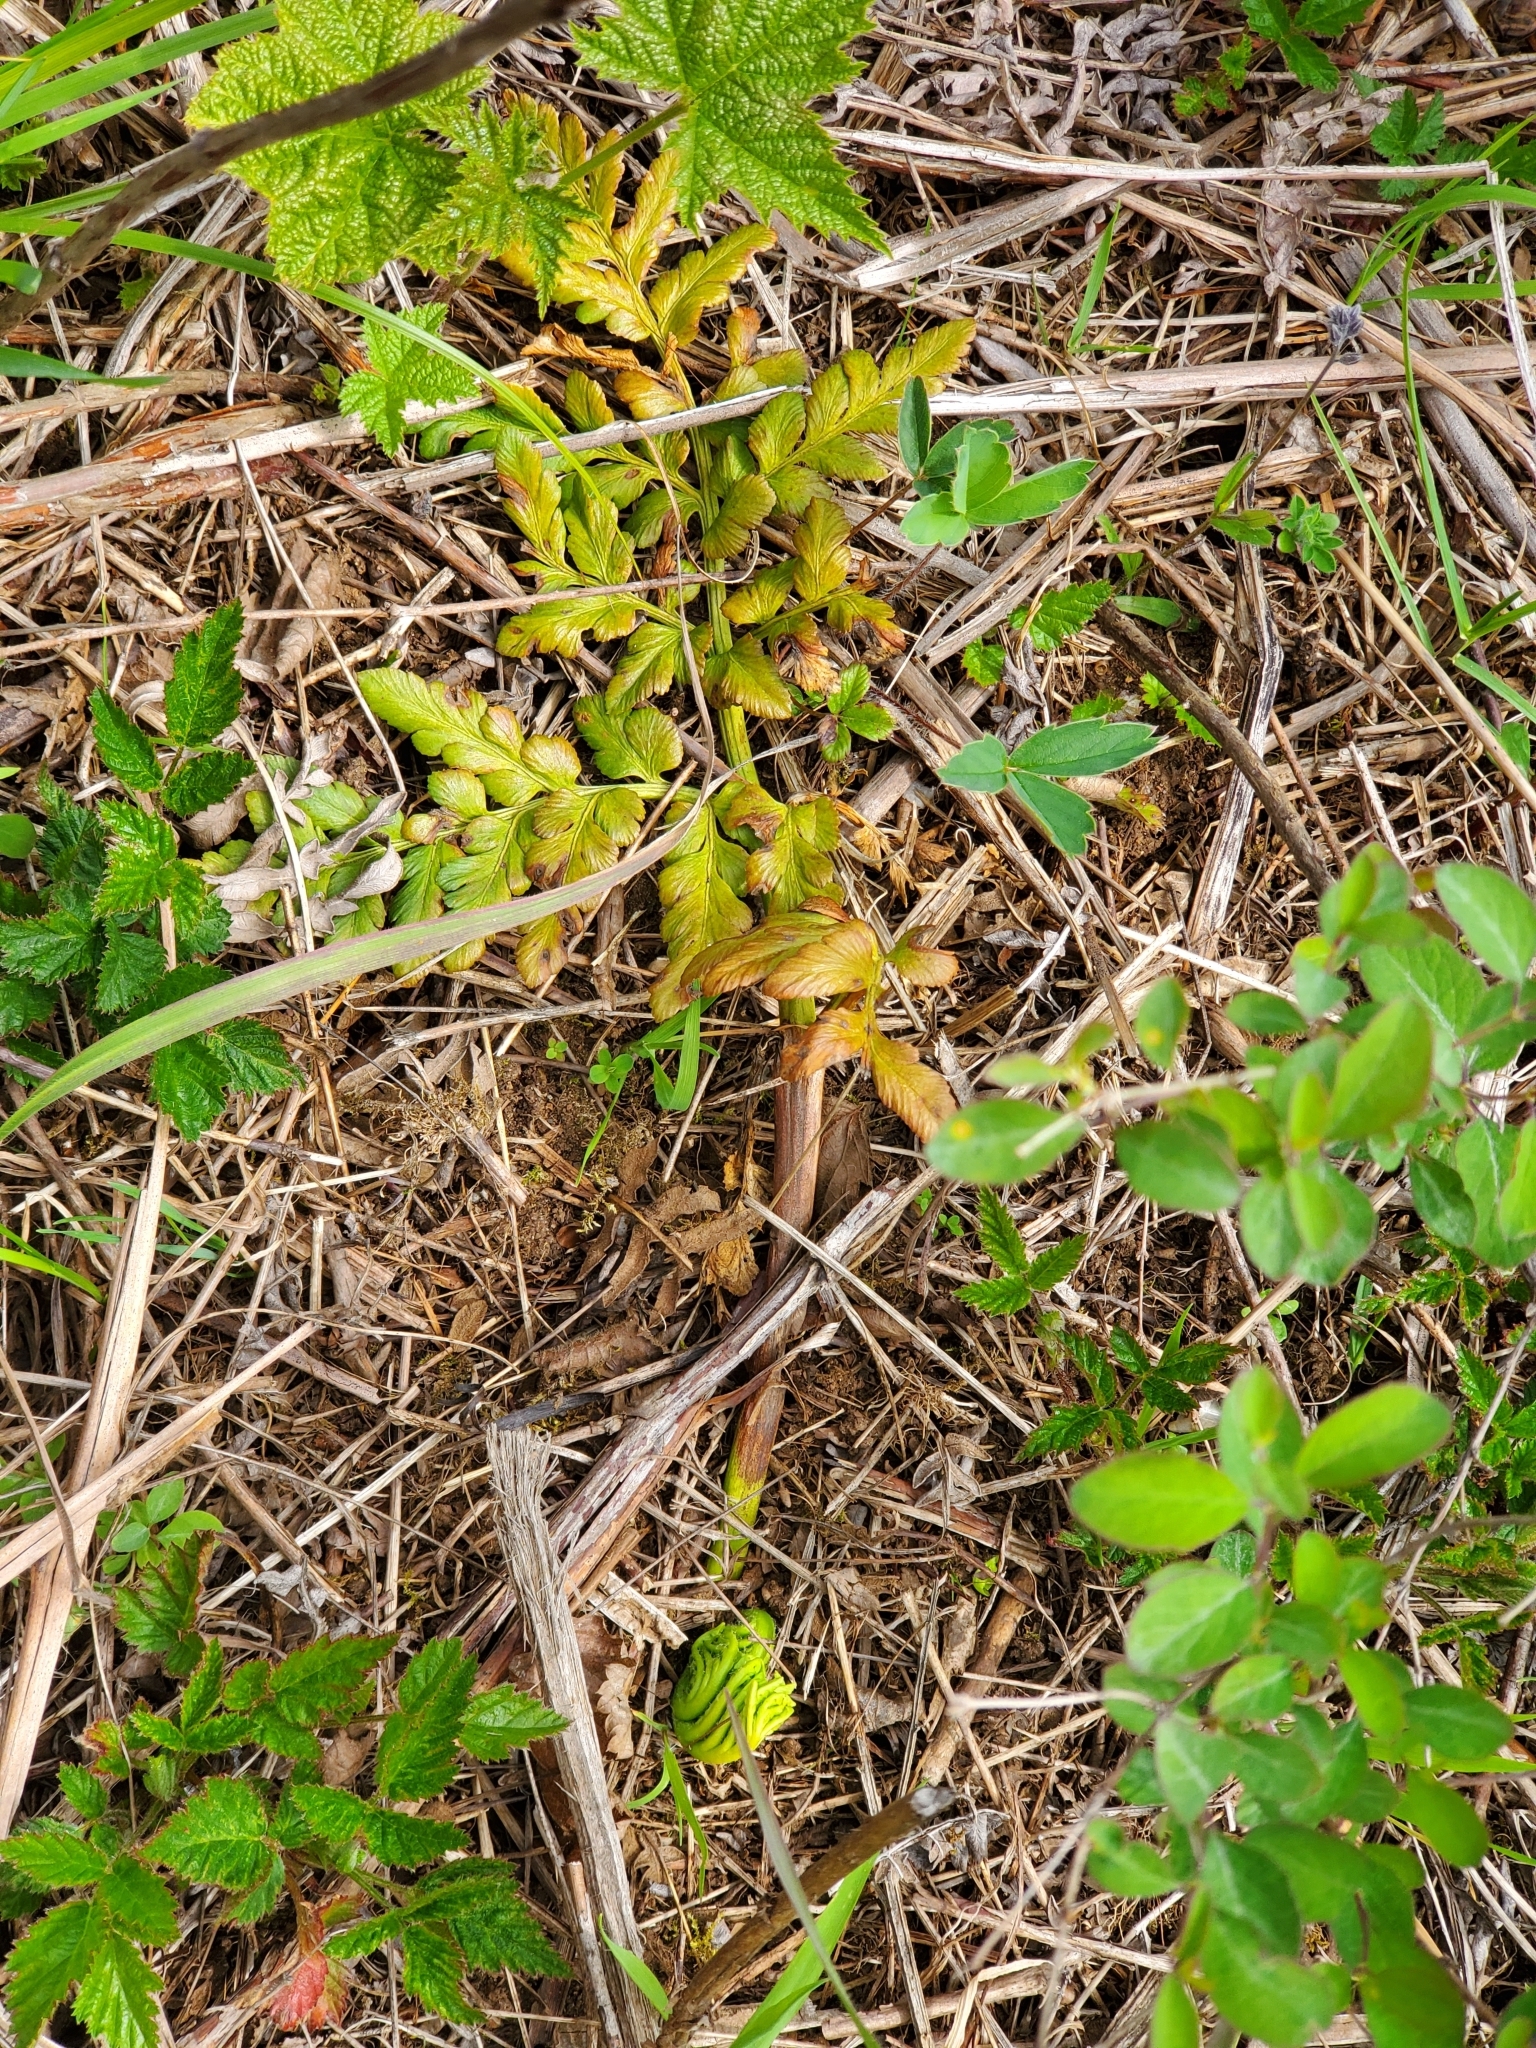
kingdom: Plantae
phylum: Tracheophyta
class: Polypodiopsida
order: Ophioglossales
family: Ophioglossaceae
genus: Sceptridium
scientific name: Sceptridium multifidum
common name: Leathery grape fern
